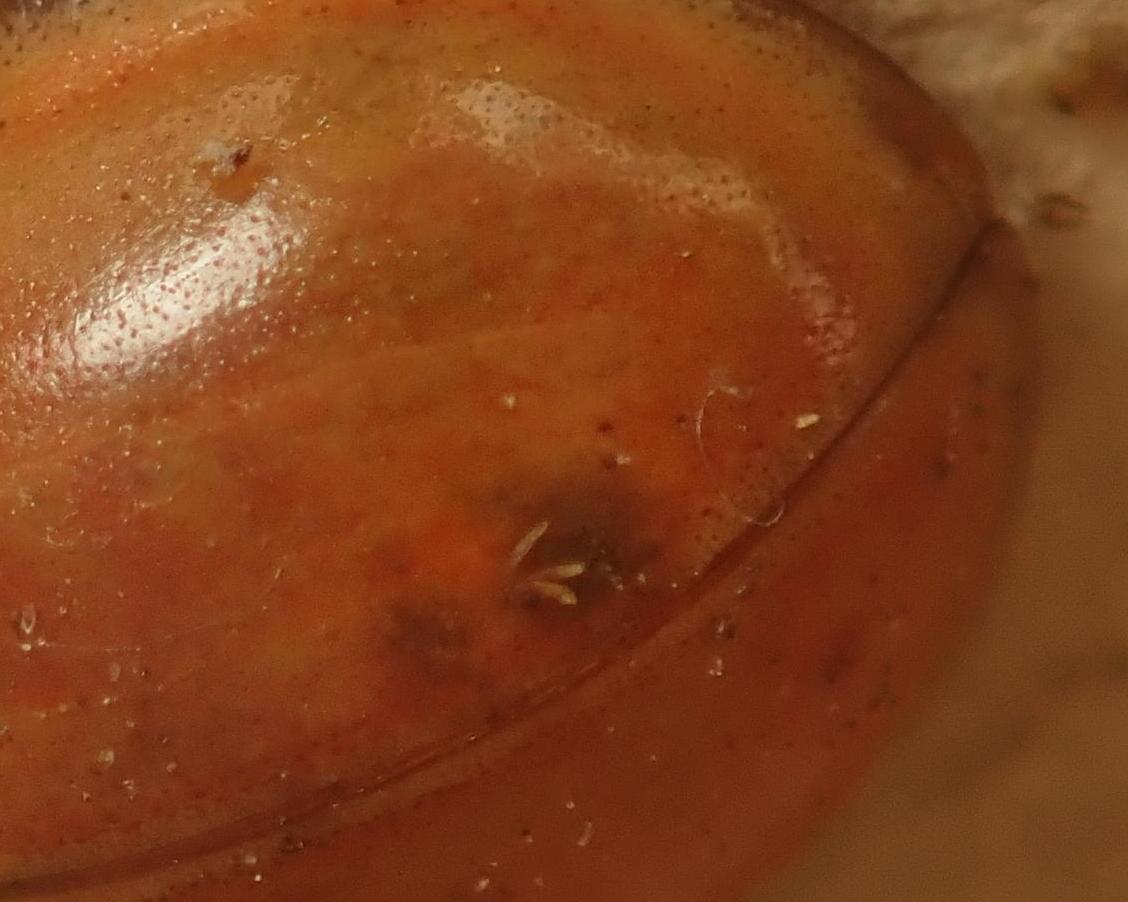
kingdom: Fungi
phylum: Ascomycota
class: Laboulbeniomycetes
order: Laboulbeniales
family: Laboulbeniaceae
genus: Hesperomyces
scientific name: Hesperomyces harmoniae
